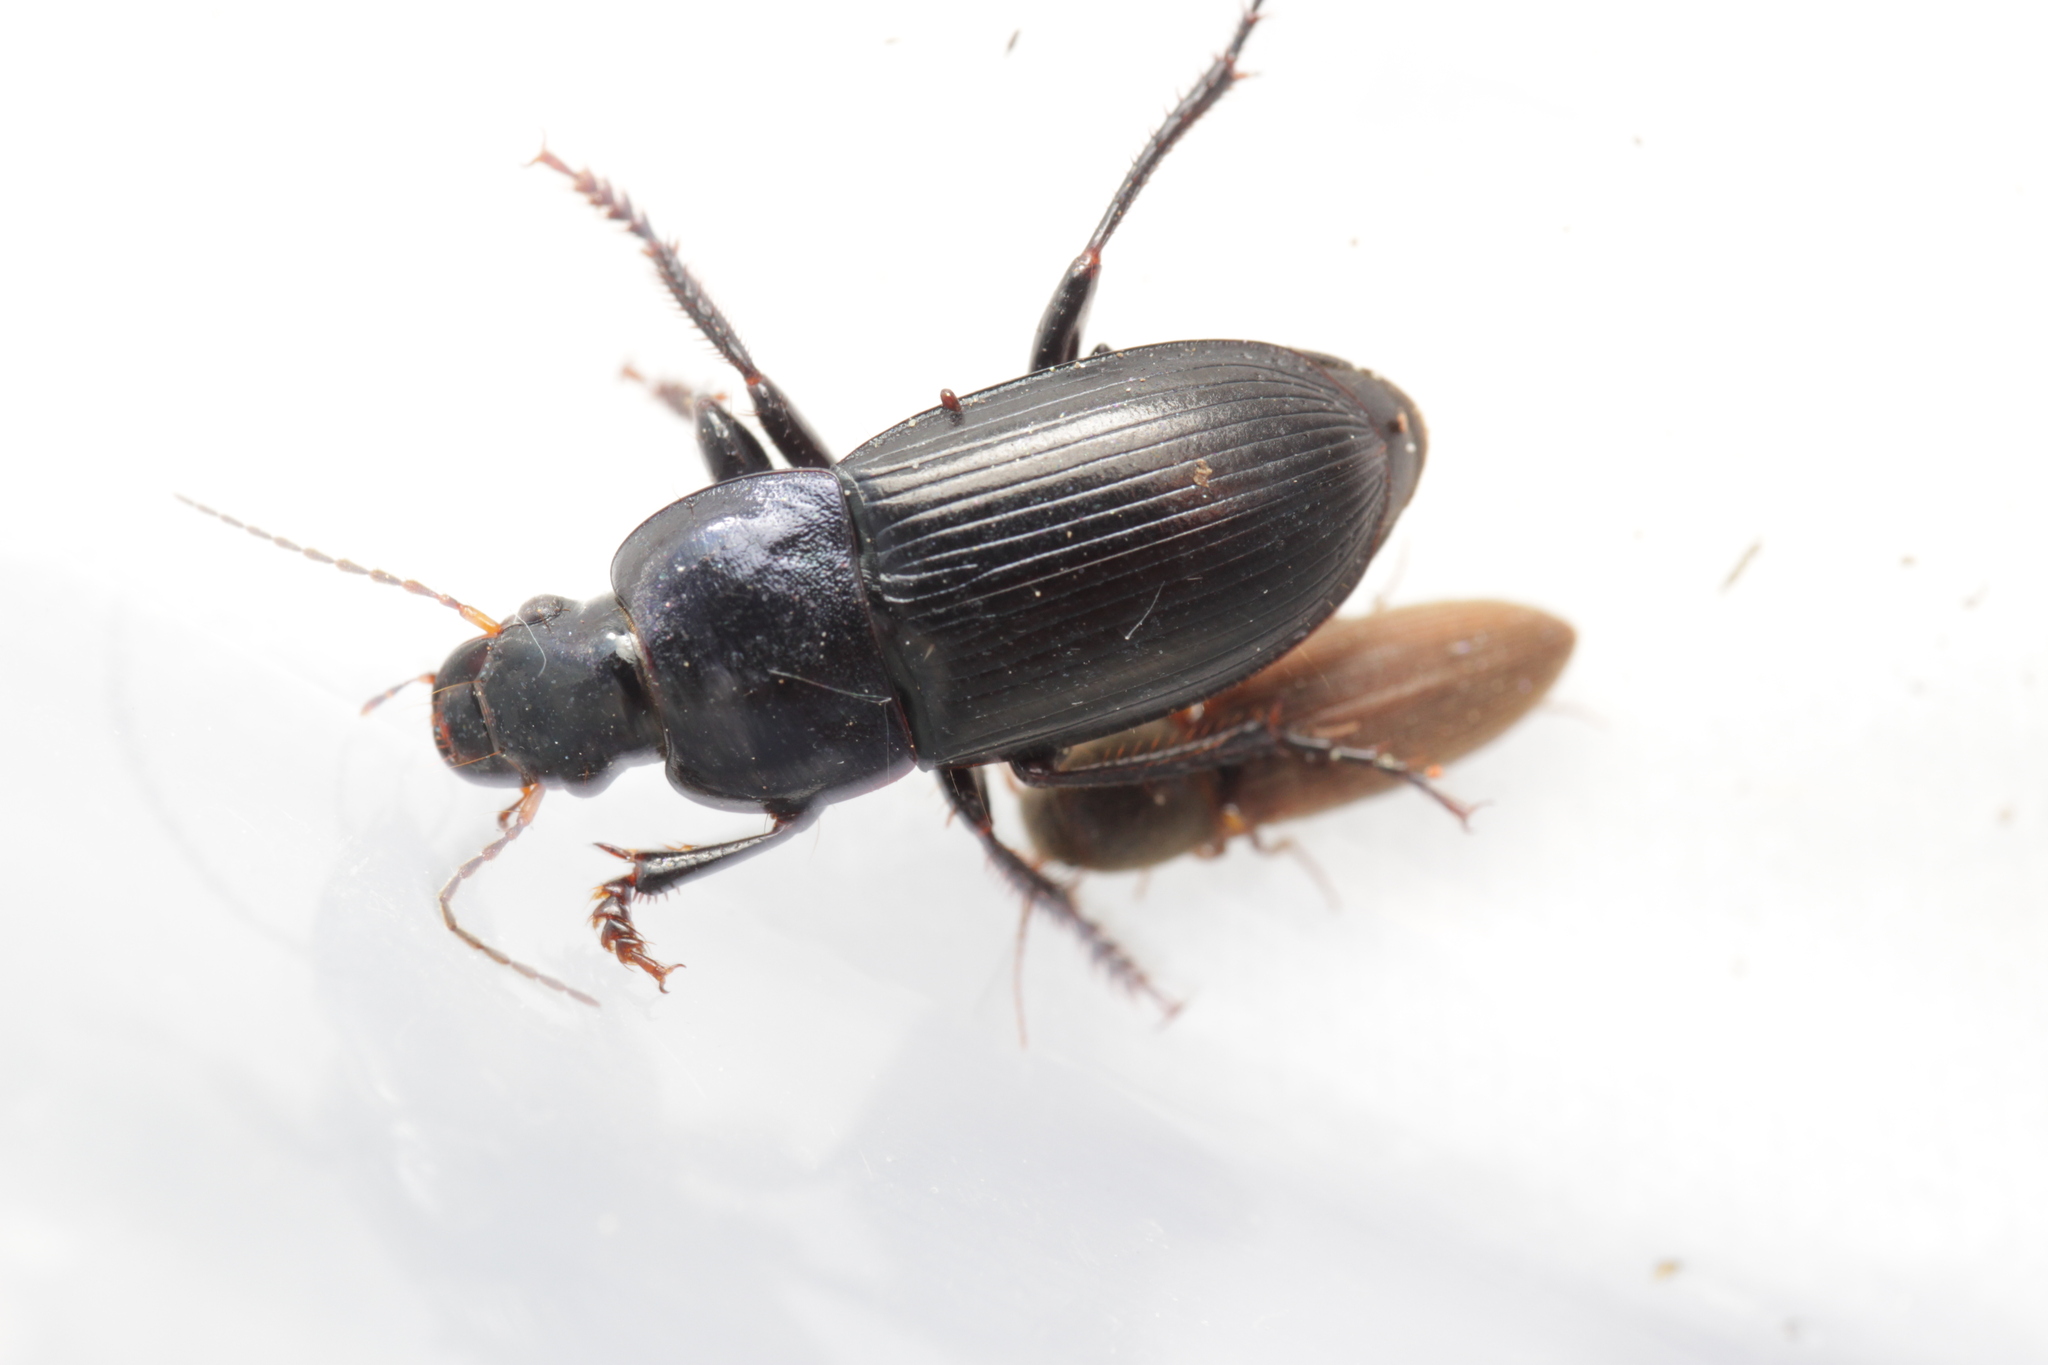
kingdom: Animalia
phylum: Arthropoda
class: Insecta
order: Coleoptera
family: Carabidae
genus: Harpalus
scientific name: Harpalus dimidiatus
